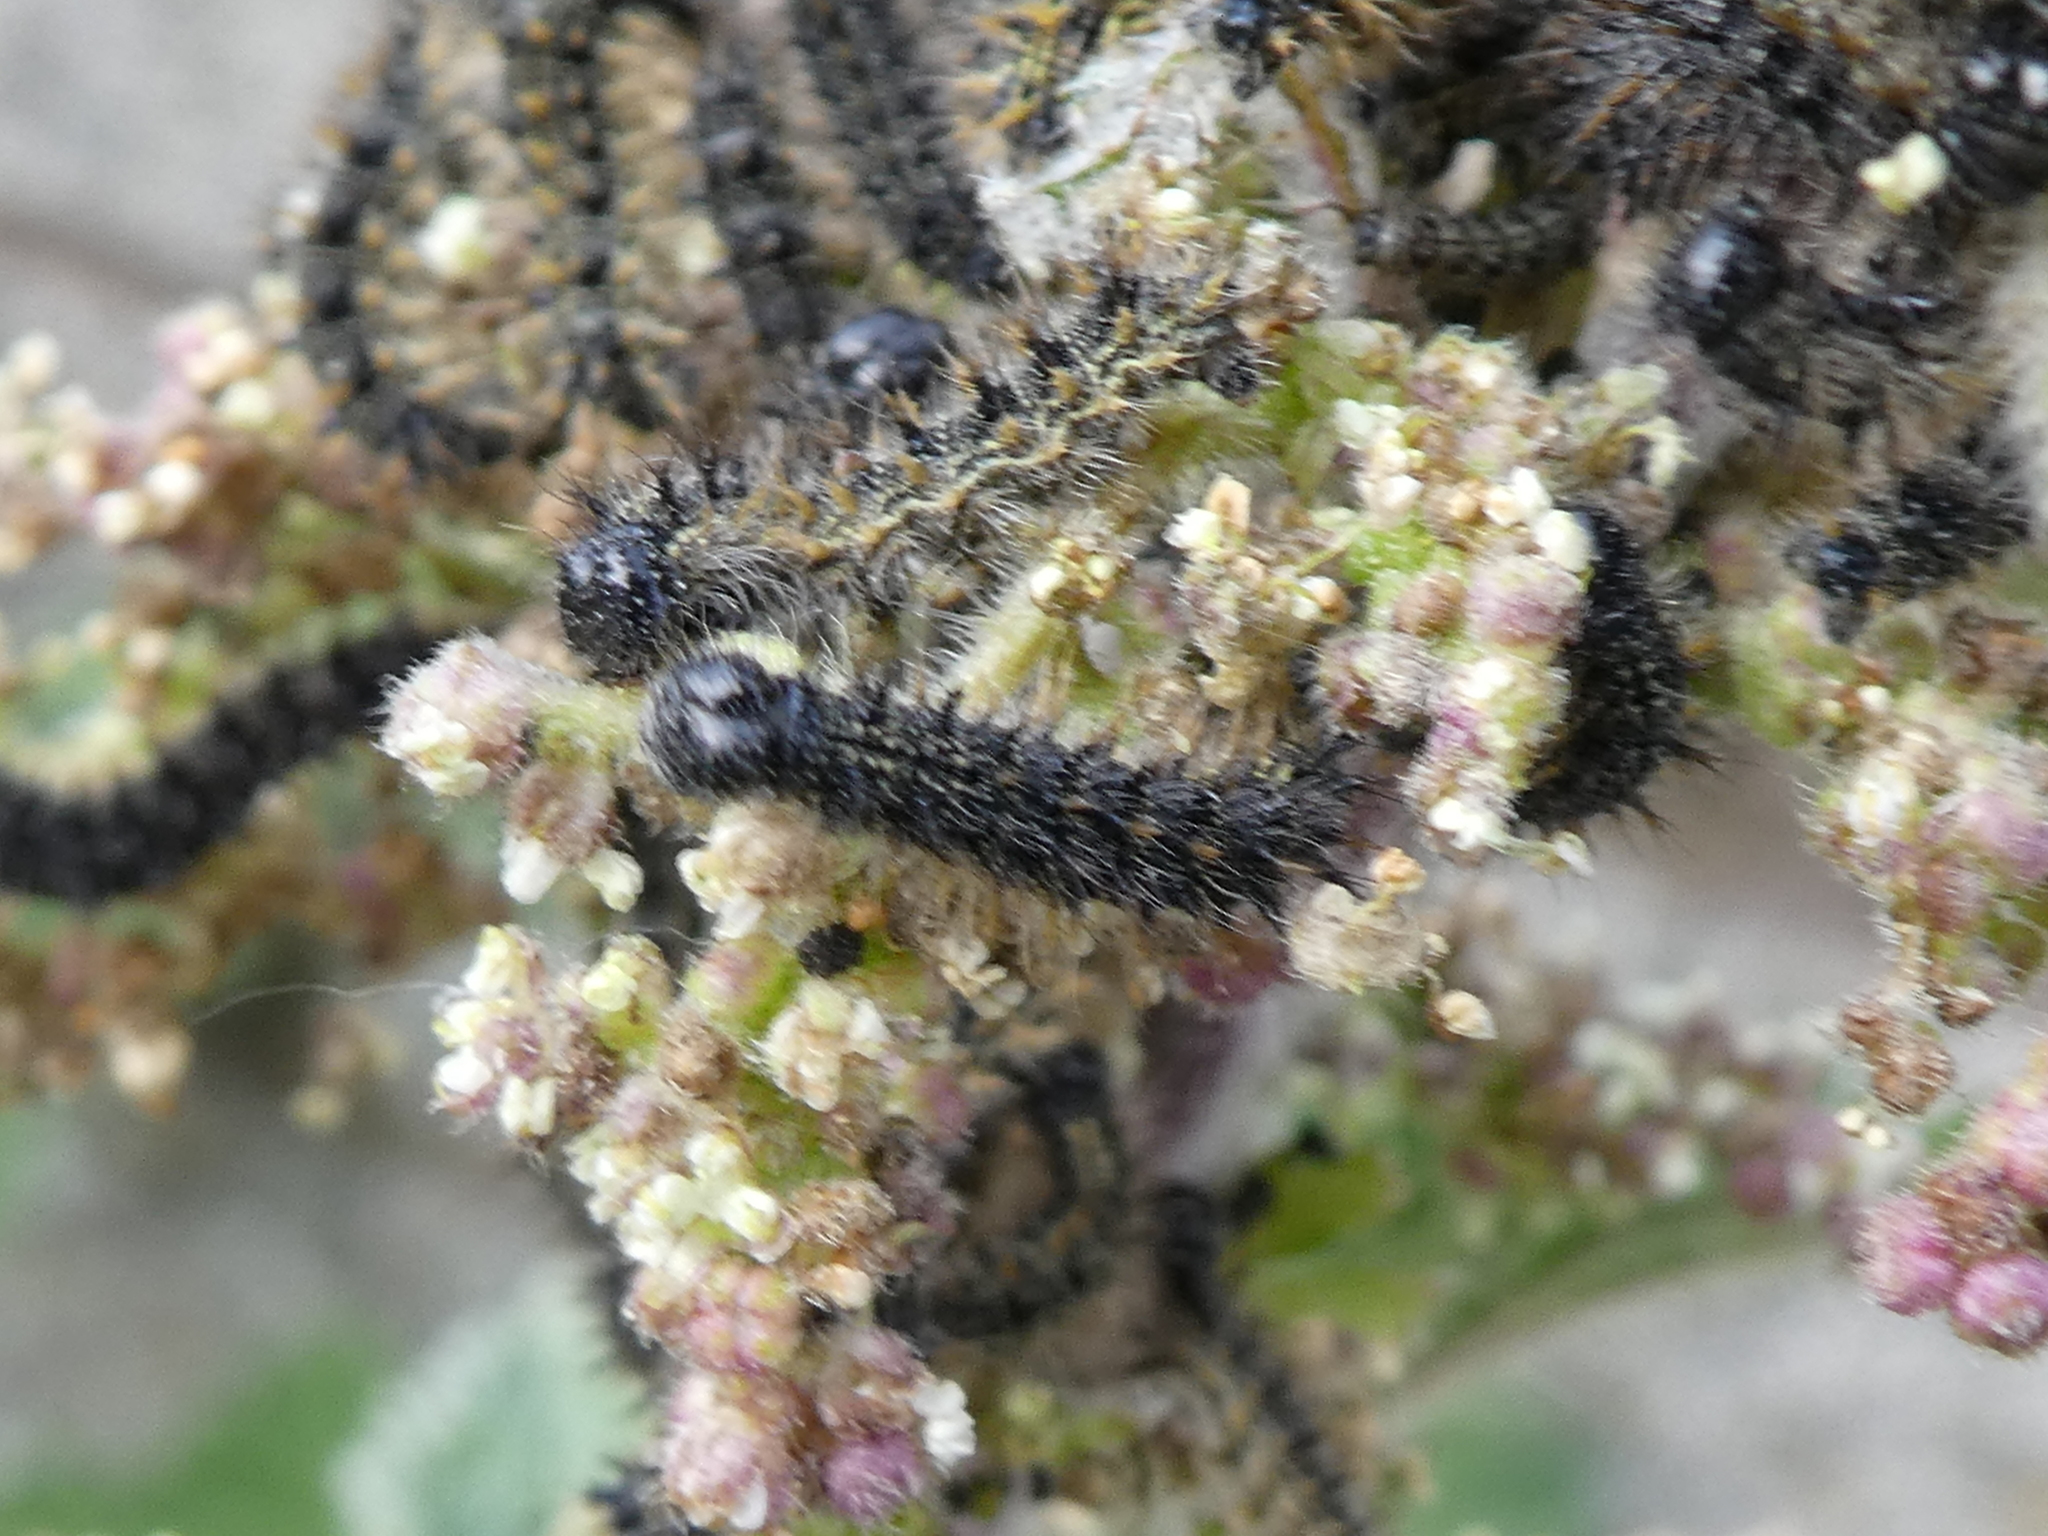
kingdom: Animalia
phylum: Arthropoda
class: Insecta
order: Lepidoptera
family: Nymphalidae
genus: Aglais
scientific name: Aglais urticae
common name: Small tortoiseshell
